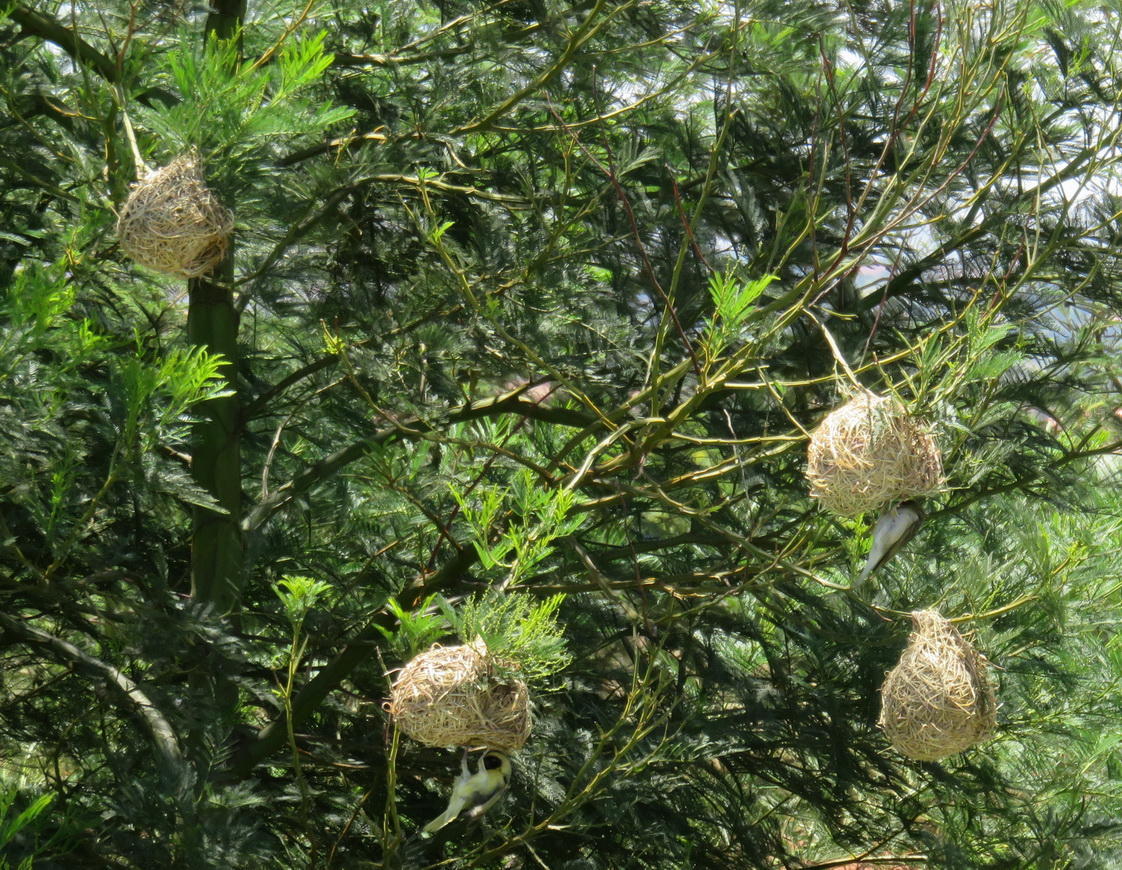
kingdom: Animalia
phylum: Chordata
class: Aves
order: Passeriformes
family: Ploceidae
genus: Ploceus
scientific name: Ploceus velatus
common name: Southern masked weaver
